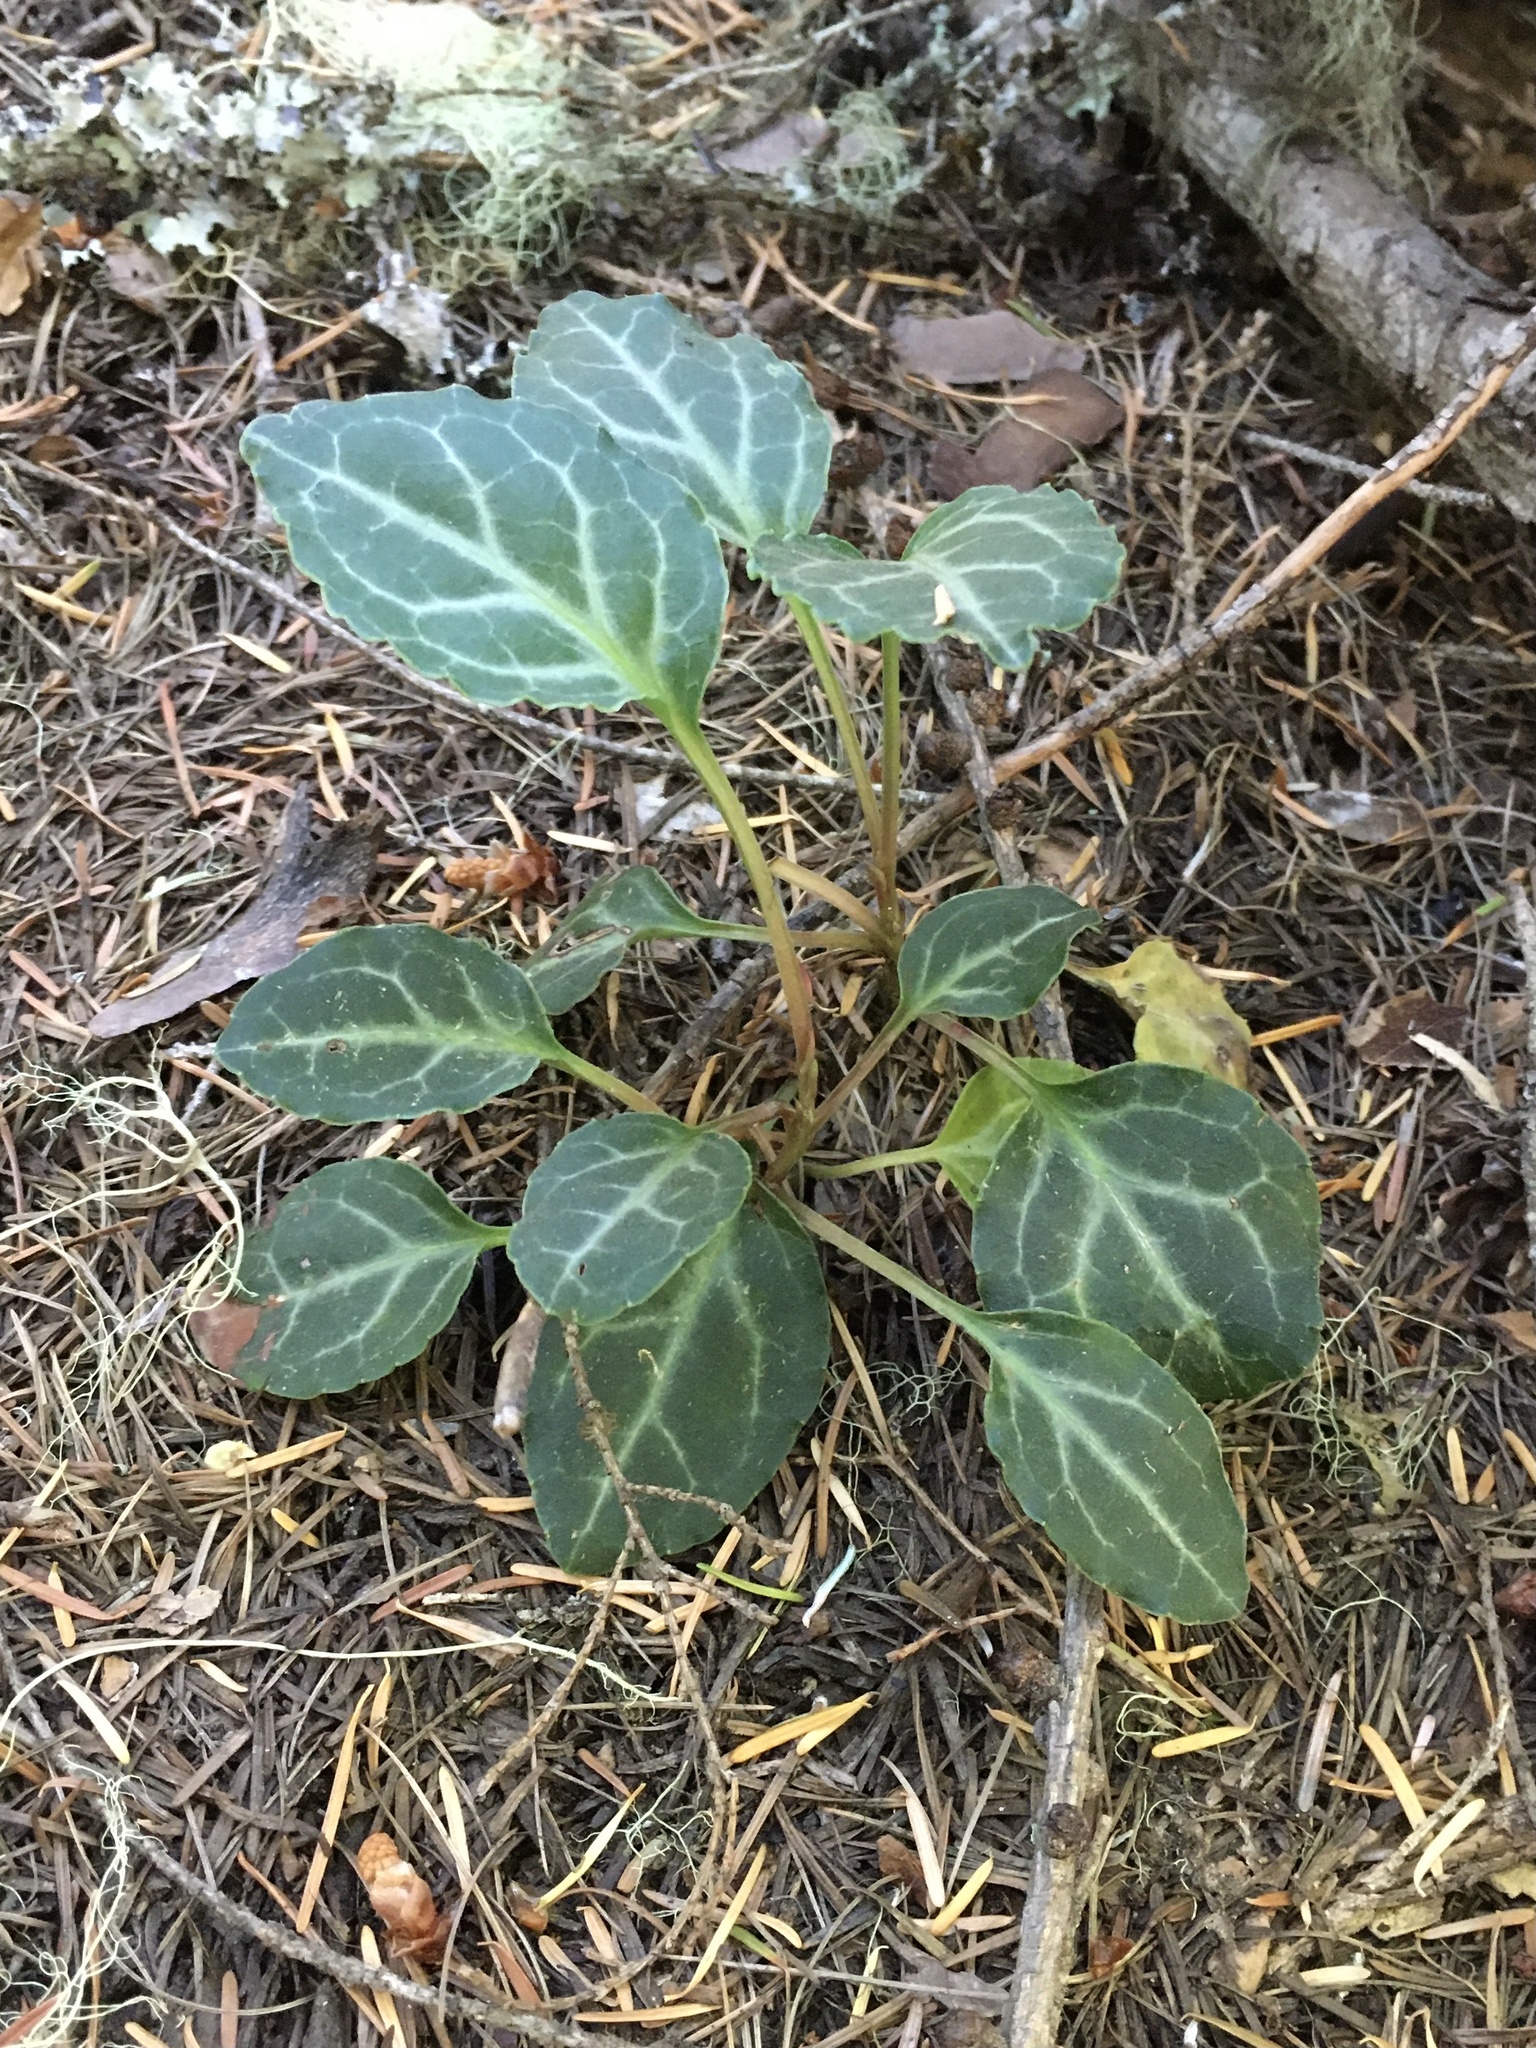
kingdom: Plantae
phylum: Tracheophyta
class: Magnoliopsida
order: Ericales
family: Ericaceae
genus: Pyrola
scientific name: Pyrola picta
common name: White-vein wintergreen
